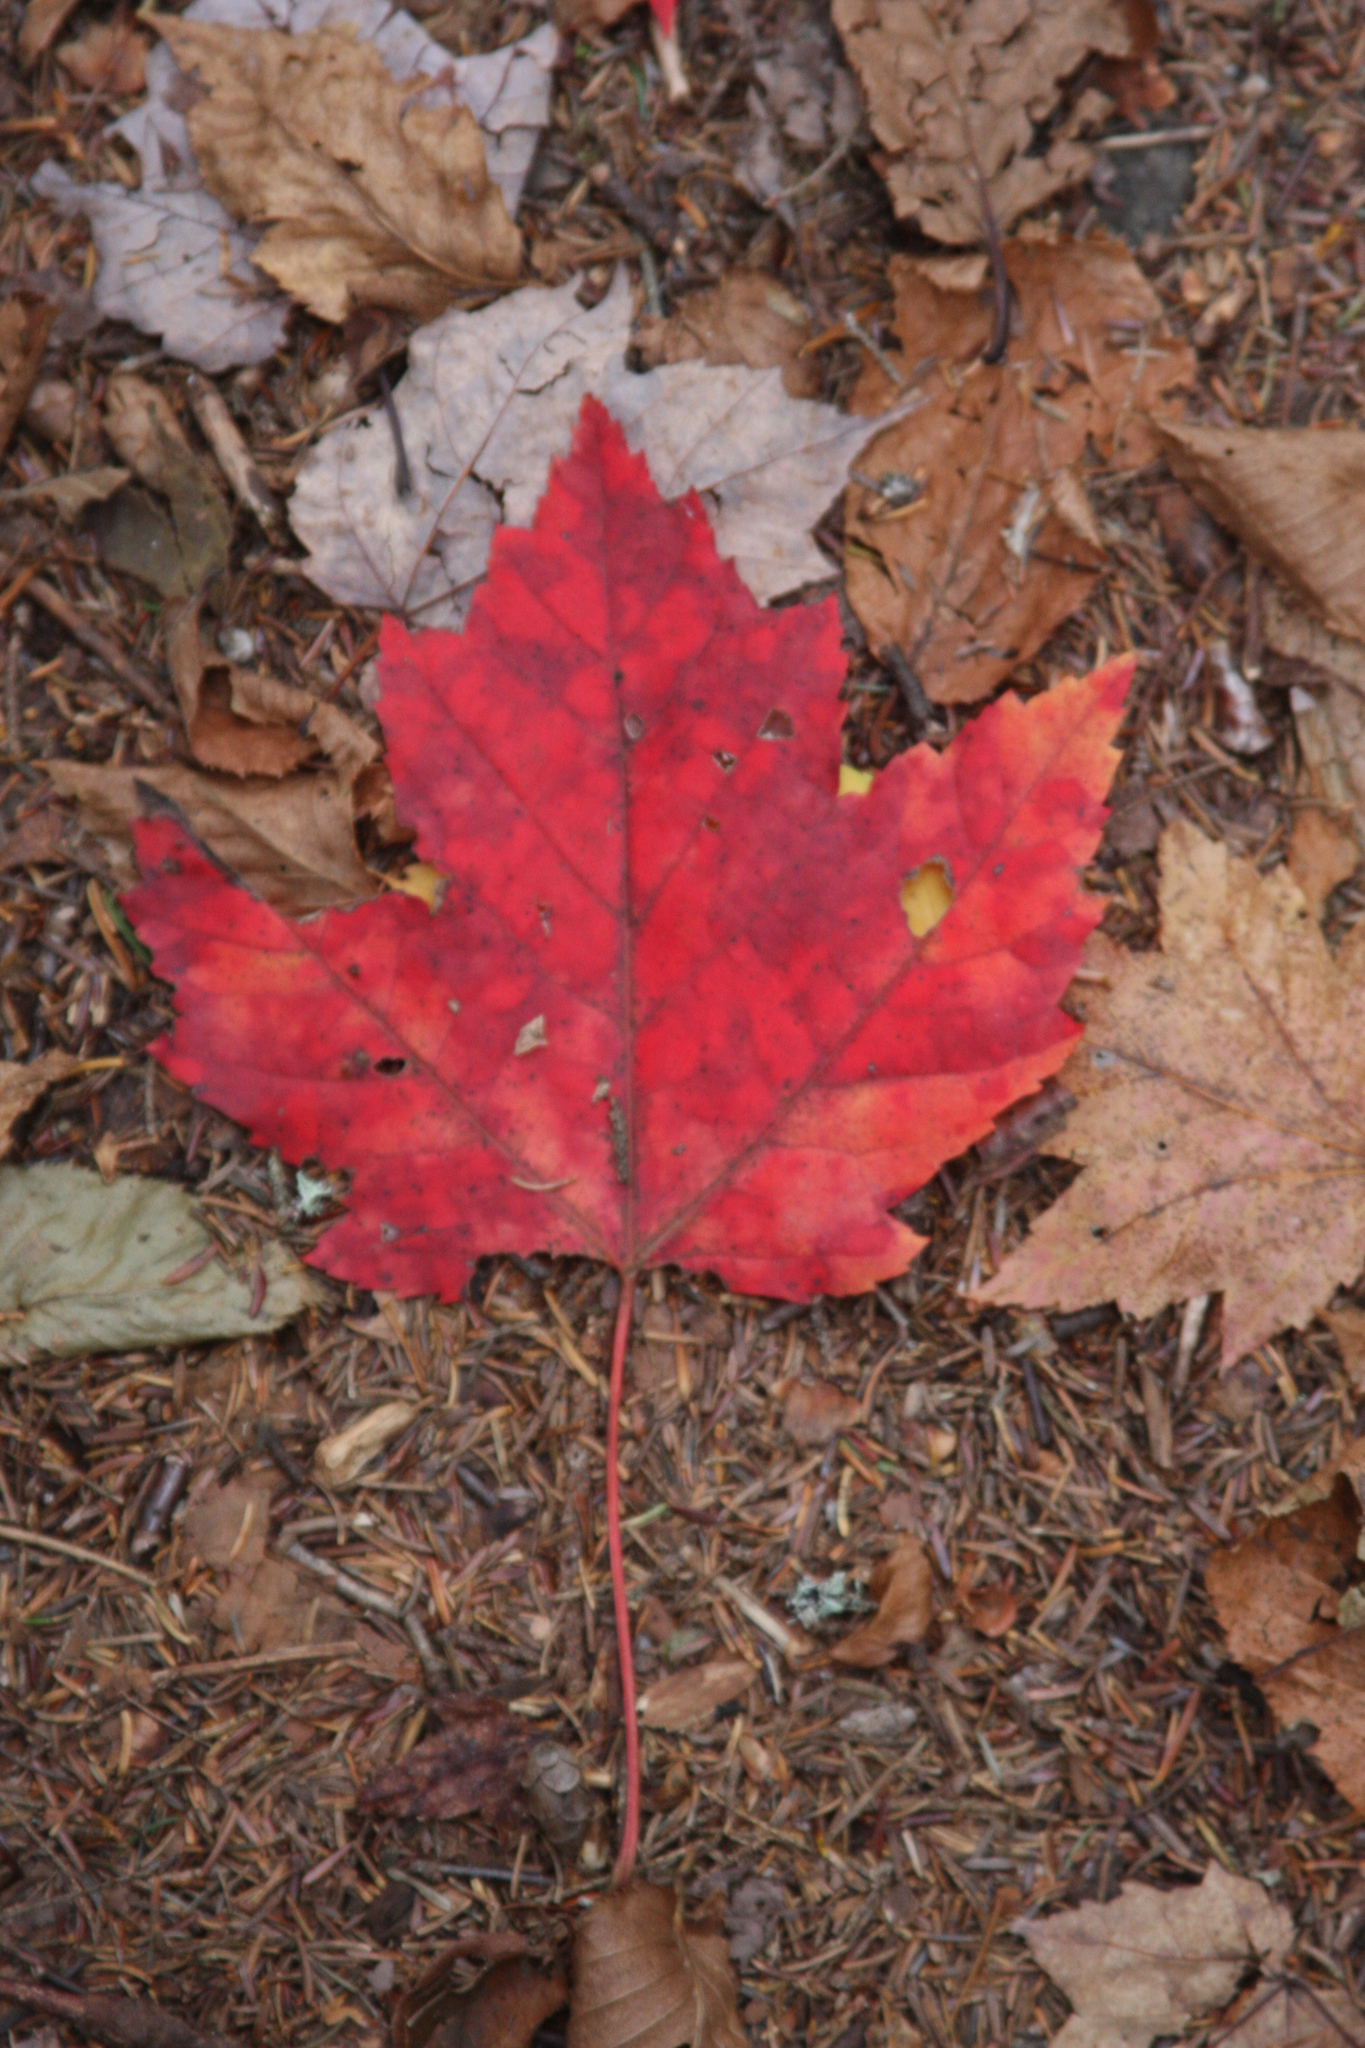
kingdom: Plantae
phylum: Tracheophyta
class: Magnoliopsida
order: Sapindales
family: Sapindaceae
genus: Acer
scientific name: Acer rubrum
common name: Red maple
